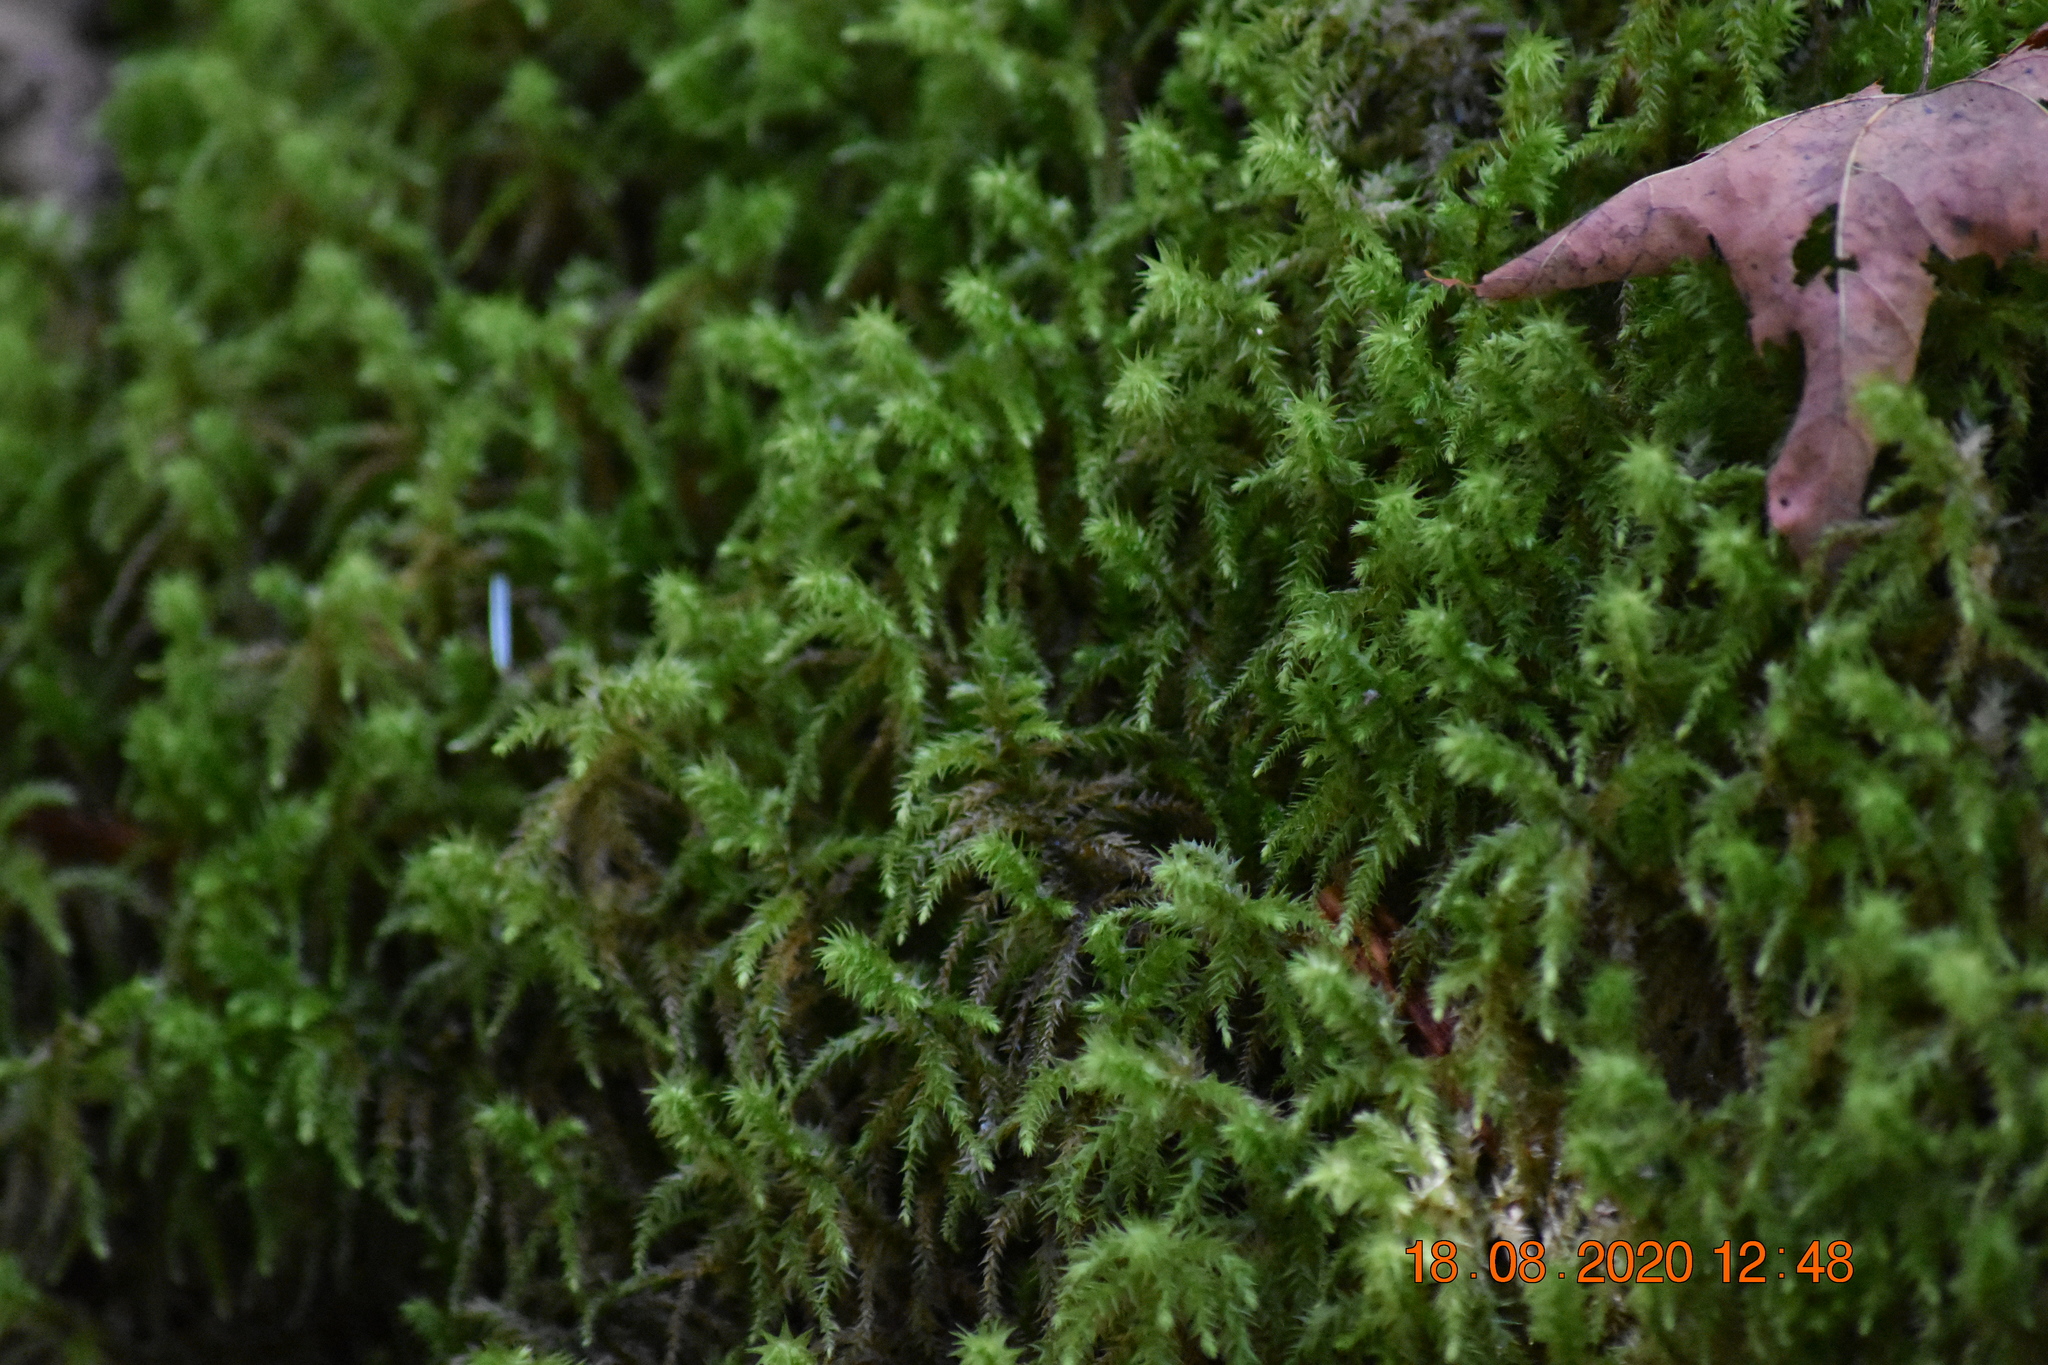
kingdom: Plantae
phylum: Bryophyta
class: Bryopsida
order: Hypnales
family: Hylocomiaceae
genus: Hylocomiadelphus
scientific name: Hylocomiadelphus triquetrus
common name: Rough goose neck moss
